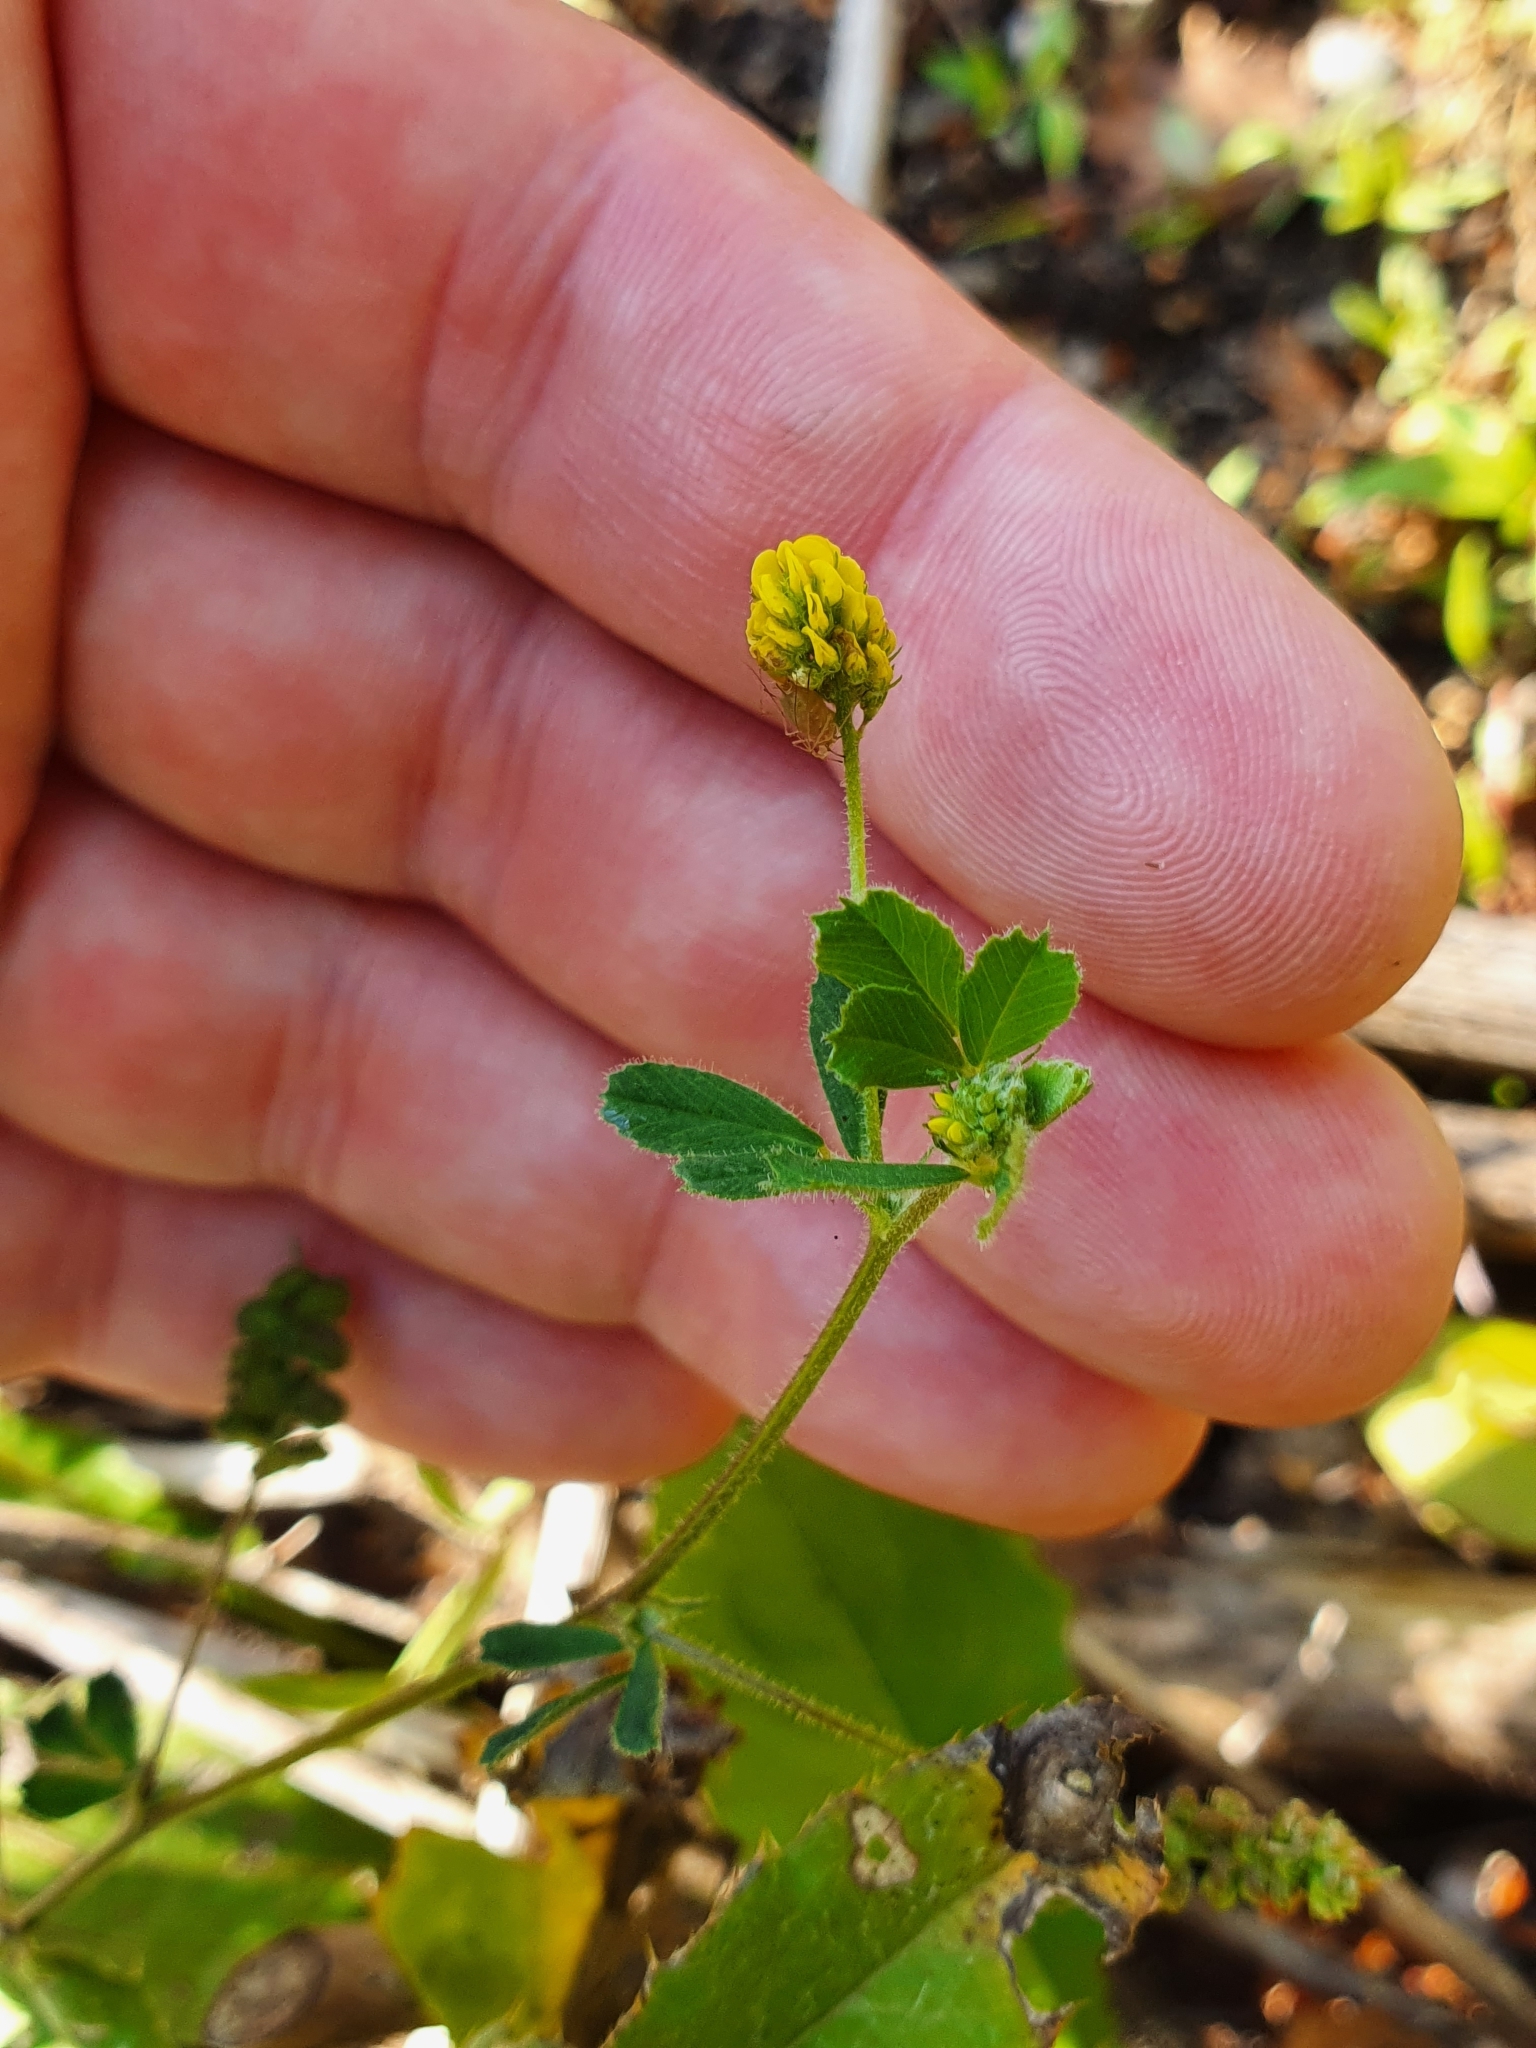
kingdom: Plantae
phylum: Tracheophyta
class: Magnoliopsida
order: Fabales
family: Fabaceae
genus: Medicago
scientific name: Medicago lupulina
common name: Black medick
